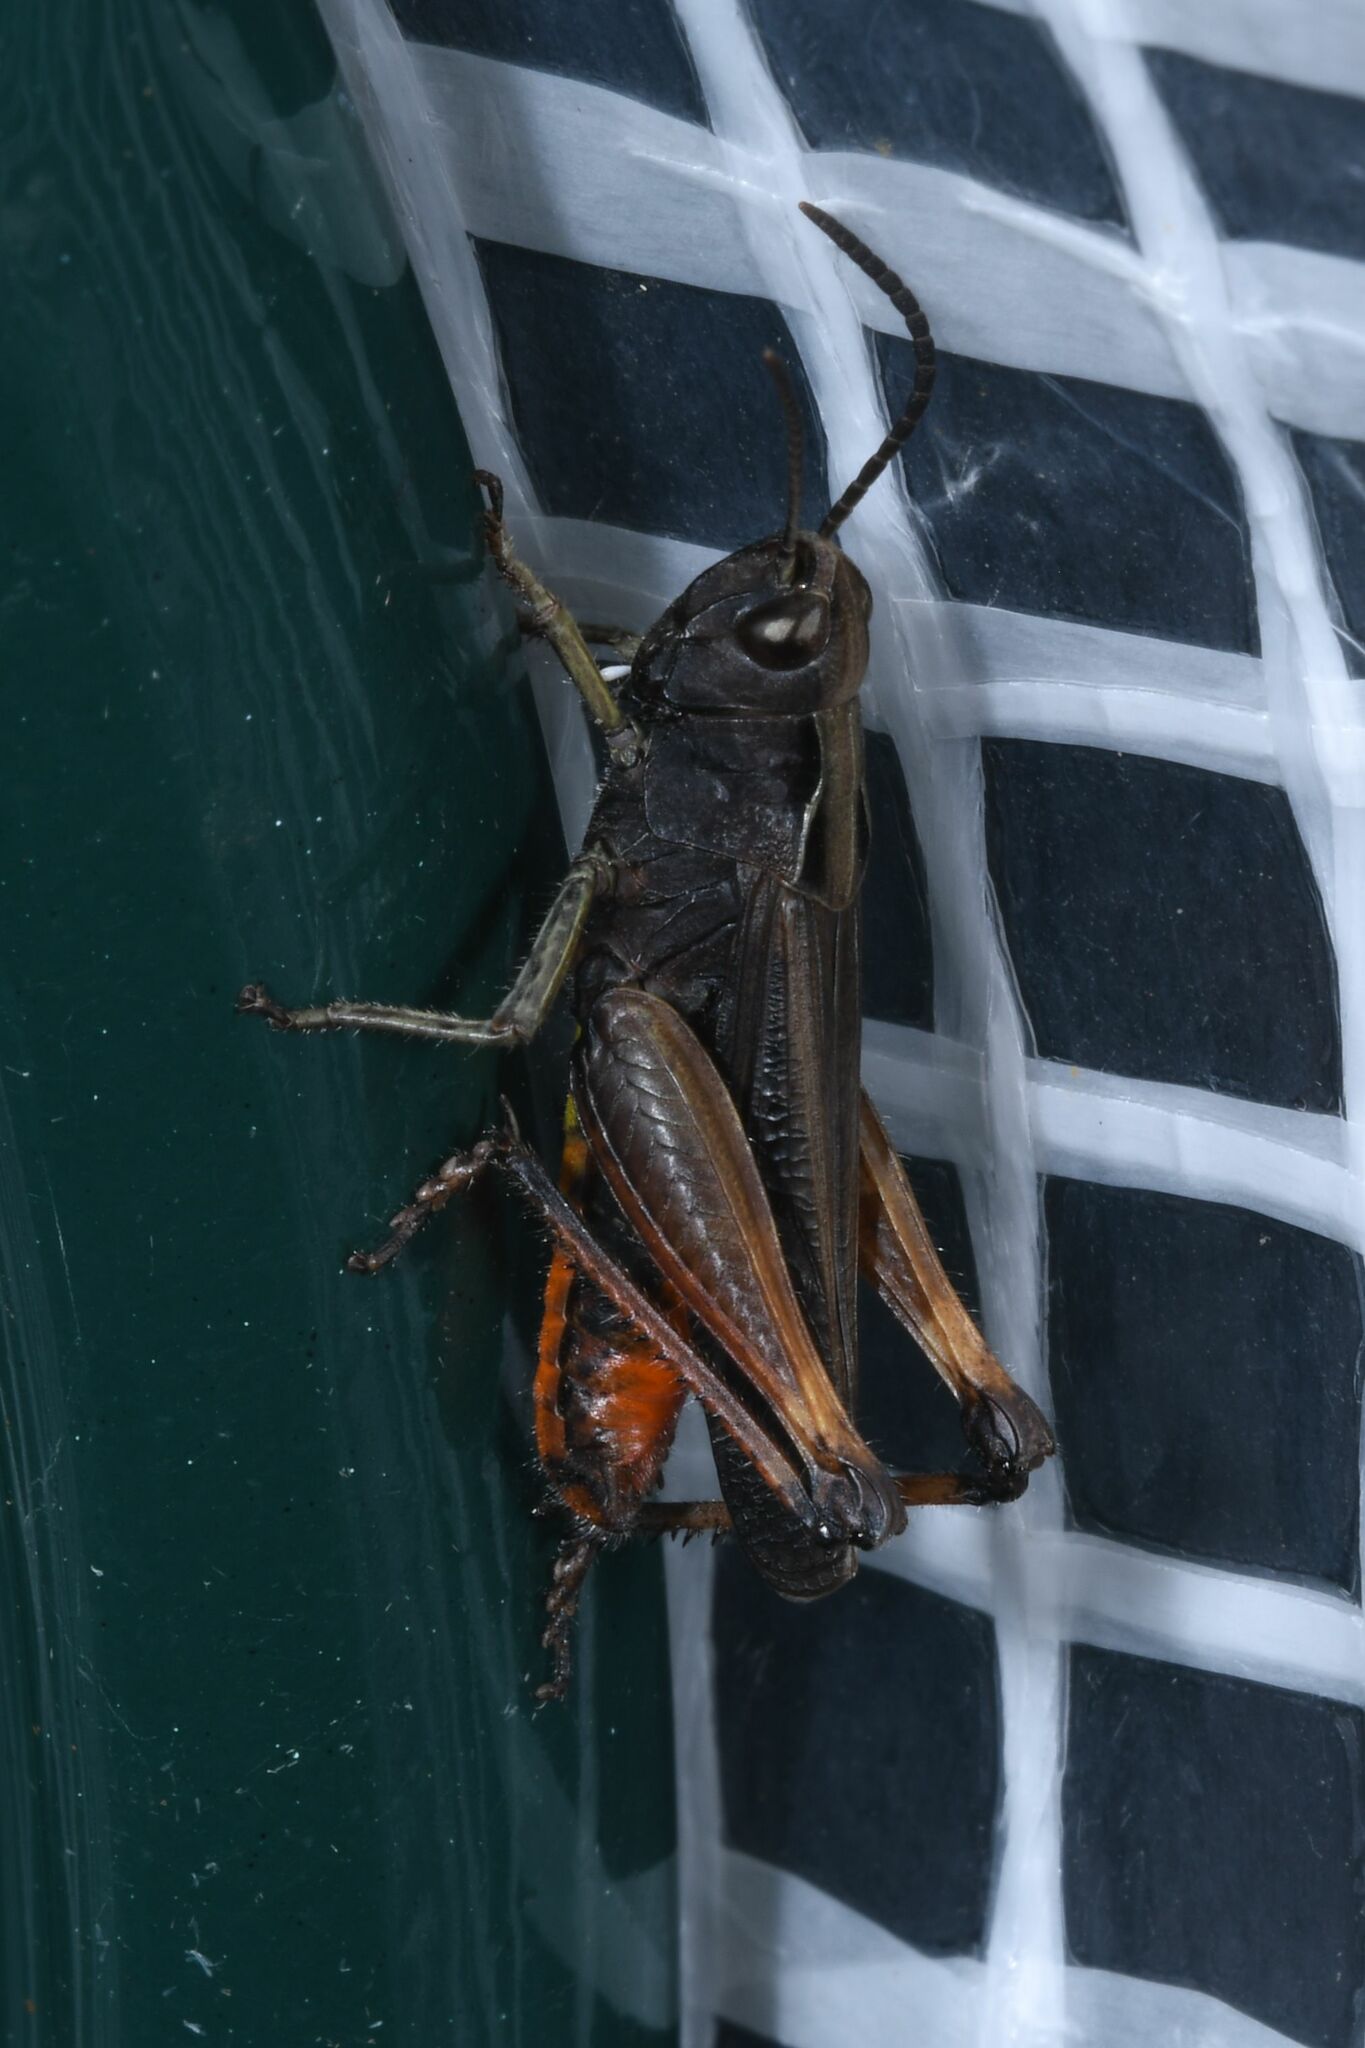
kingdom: Animalia
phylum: Arthropoda
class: Insecta
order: Orthoptera
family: Acrididae
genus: Omocestus
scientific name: Omocestus rufipes
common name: Woodland grasshopper
